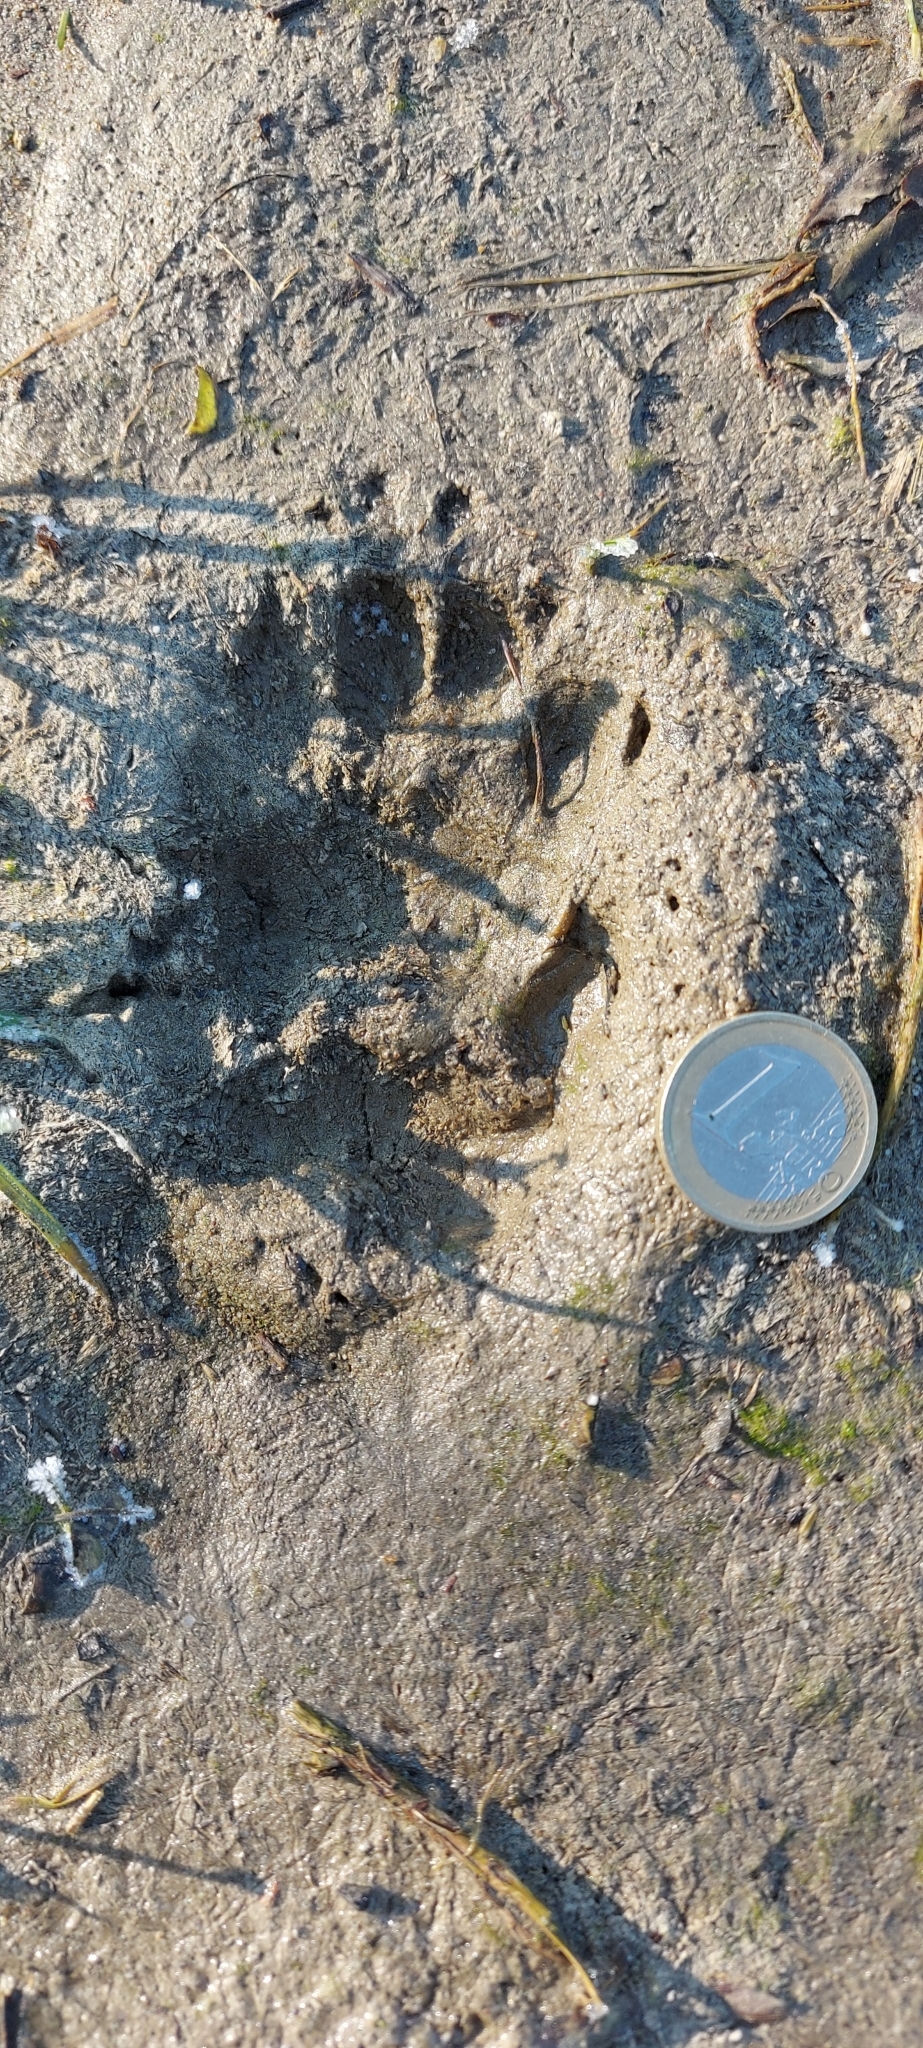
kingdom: Animalia
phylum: Chordata
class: Mammalia
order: Carnivora
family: Mustelidae
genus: Meles
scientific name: Meles meles
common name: Eurasian badger
